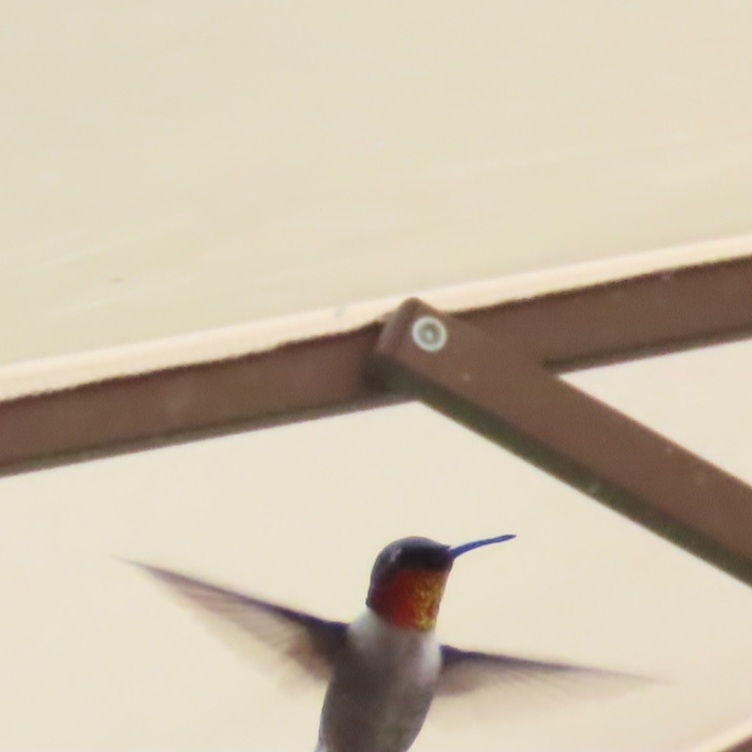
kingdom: Animalia
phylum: Chordata
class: Aves
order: Apodiformes
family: Trochilidae
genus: Archilochus
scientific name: Archilochus colubris
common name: Ruby-throated hummingbird
